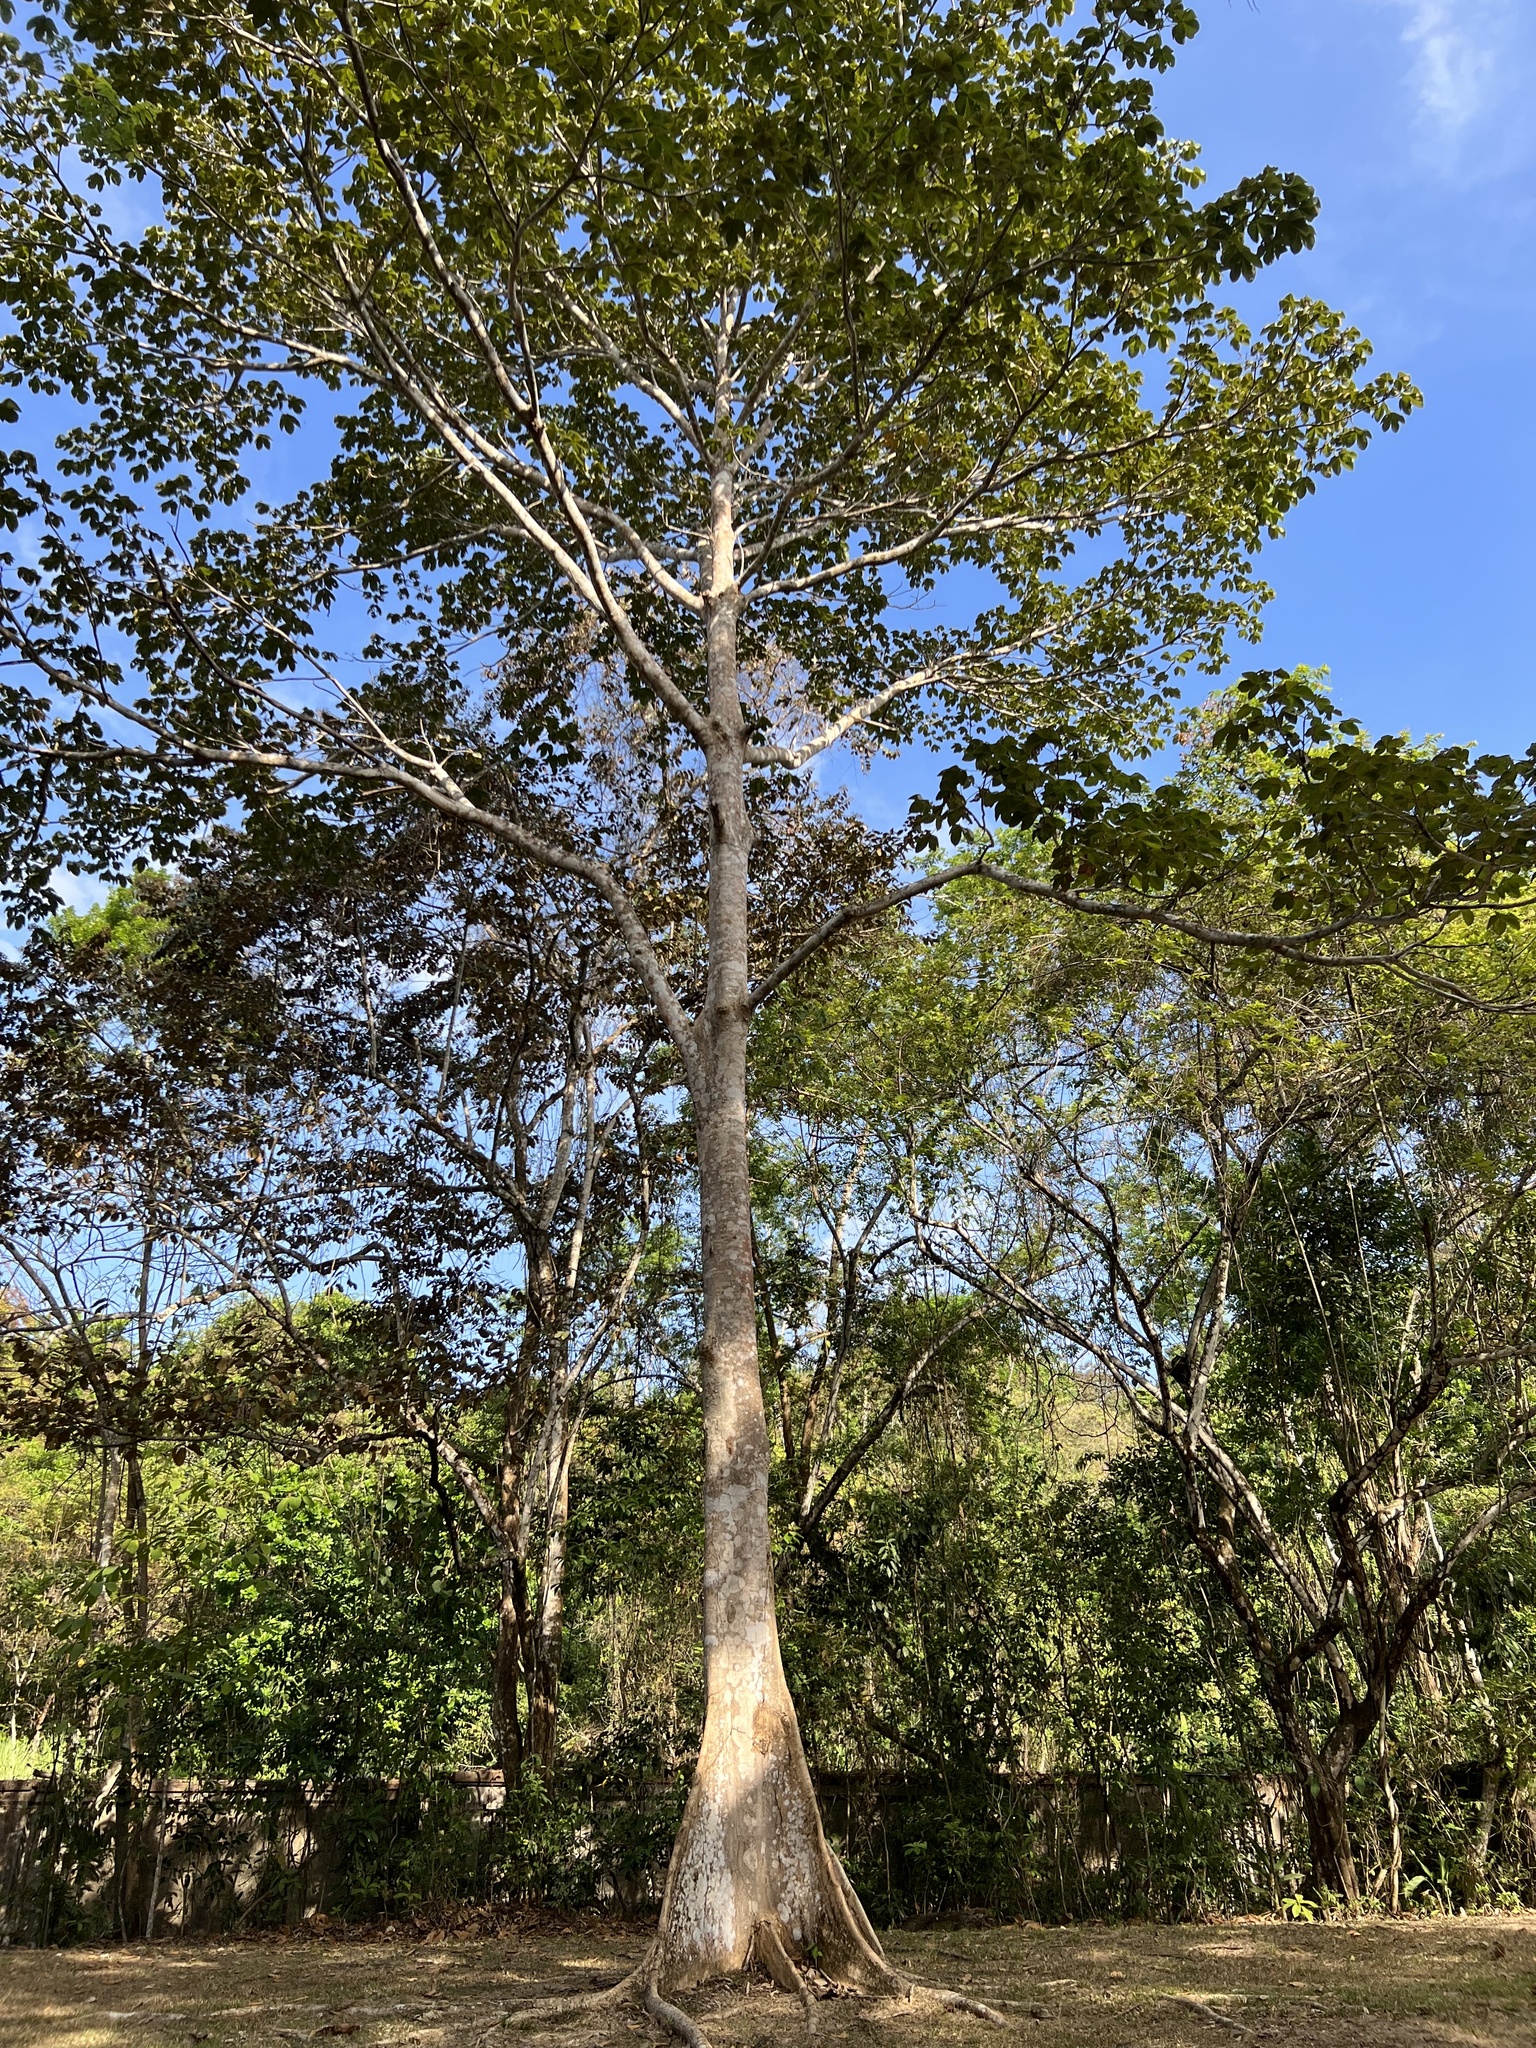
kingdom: Plantae
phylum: Tracheophyta
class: Magnoliopsida
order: Malvales
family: Malvaceae
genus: Sterculia
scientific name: Sterculia apetala
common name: Panama tree
